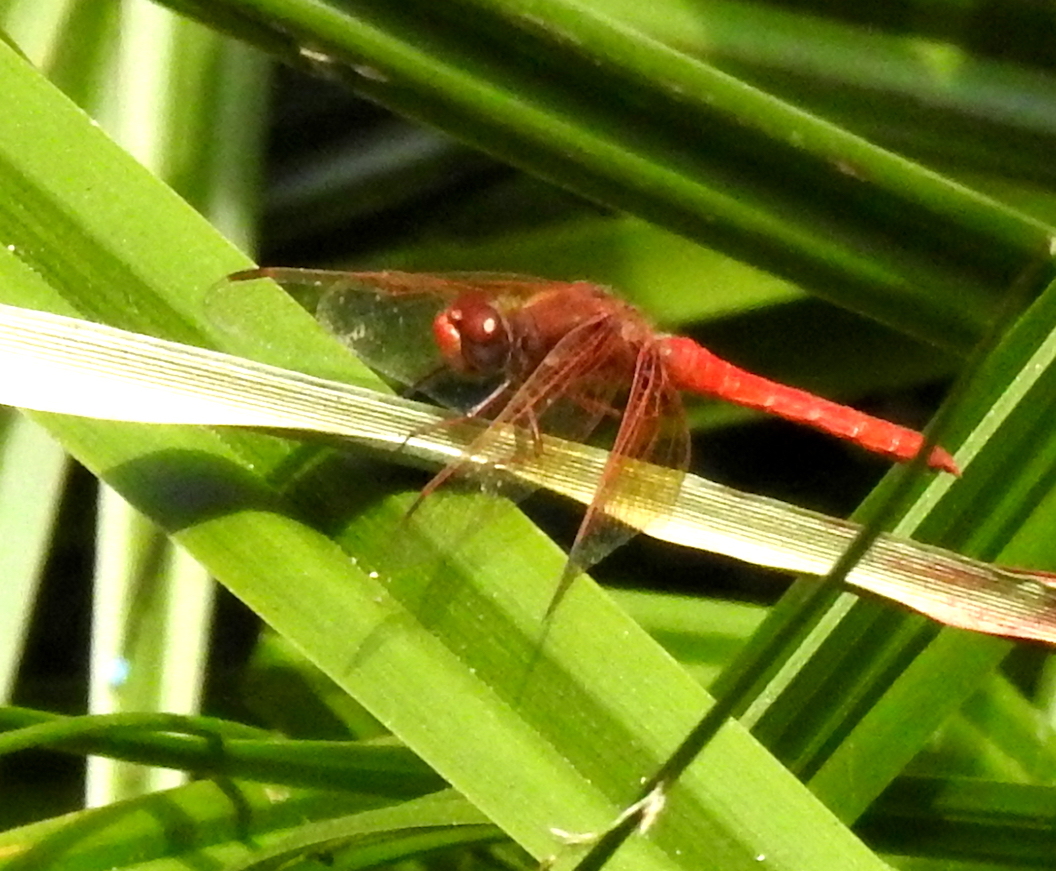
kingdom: Animalia
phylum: Arthropoda
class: Insecta
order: Odonata
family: Libellulidae
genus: Sympetrum
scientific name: Sympetrum illotum
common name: Cardinal meadowhawk
